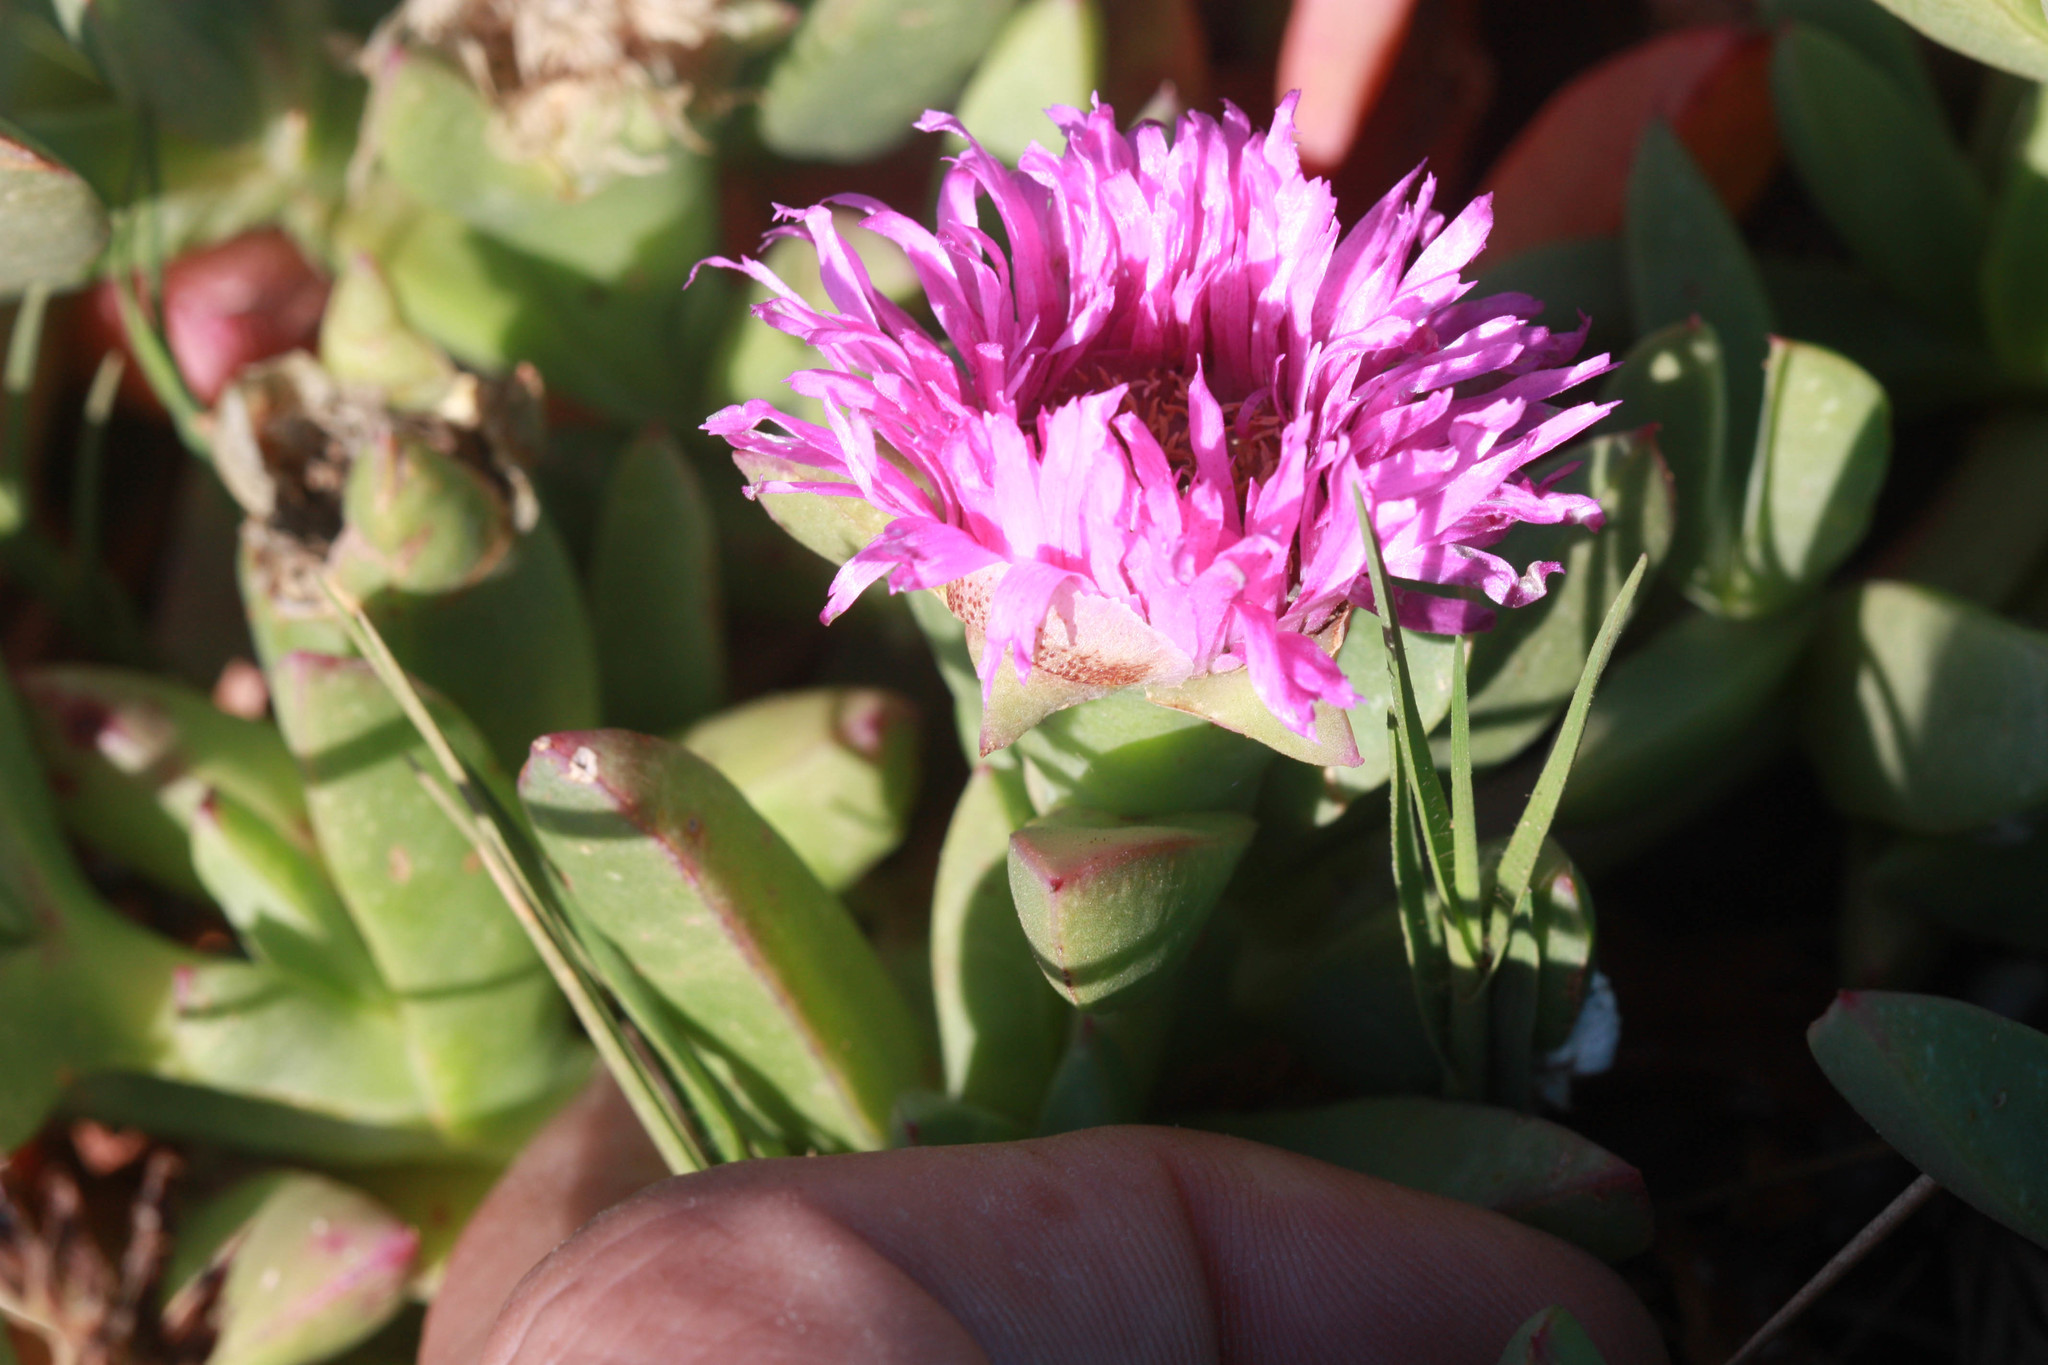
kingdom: Plantae
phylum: Tracheophyta
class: Magnoliopsida
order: Caryophyllales
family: Aizoaceae
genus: Carpobrotus
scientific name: Carpobrotus chilensis
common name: Sea fig
